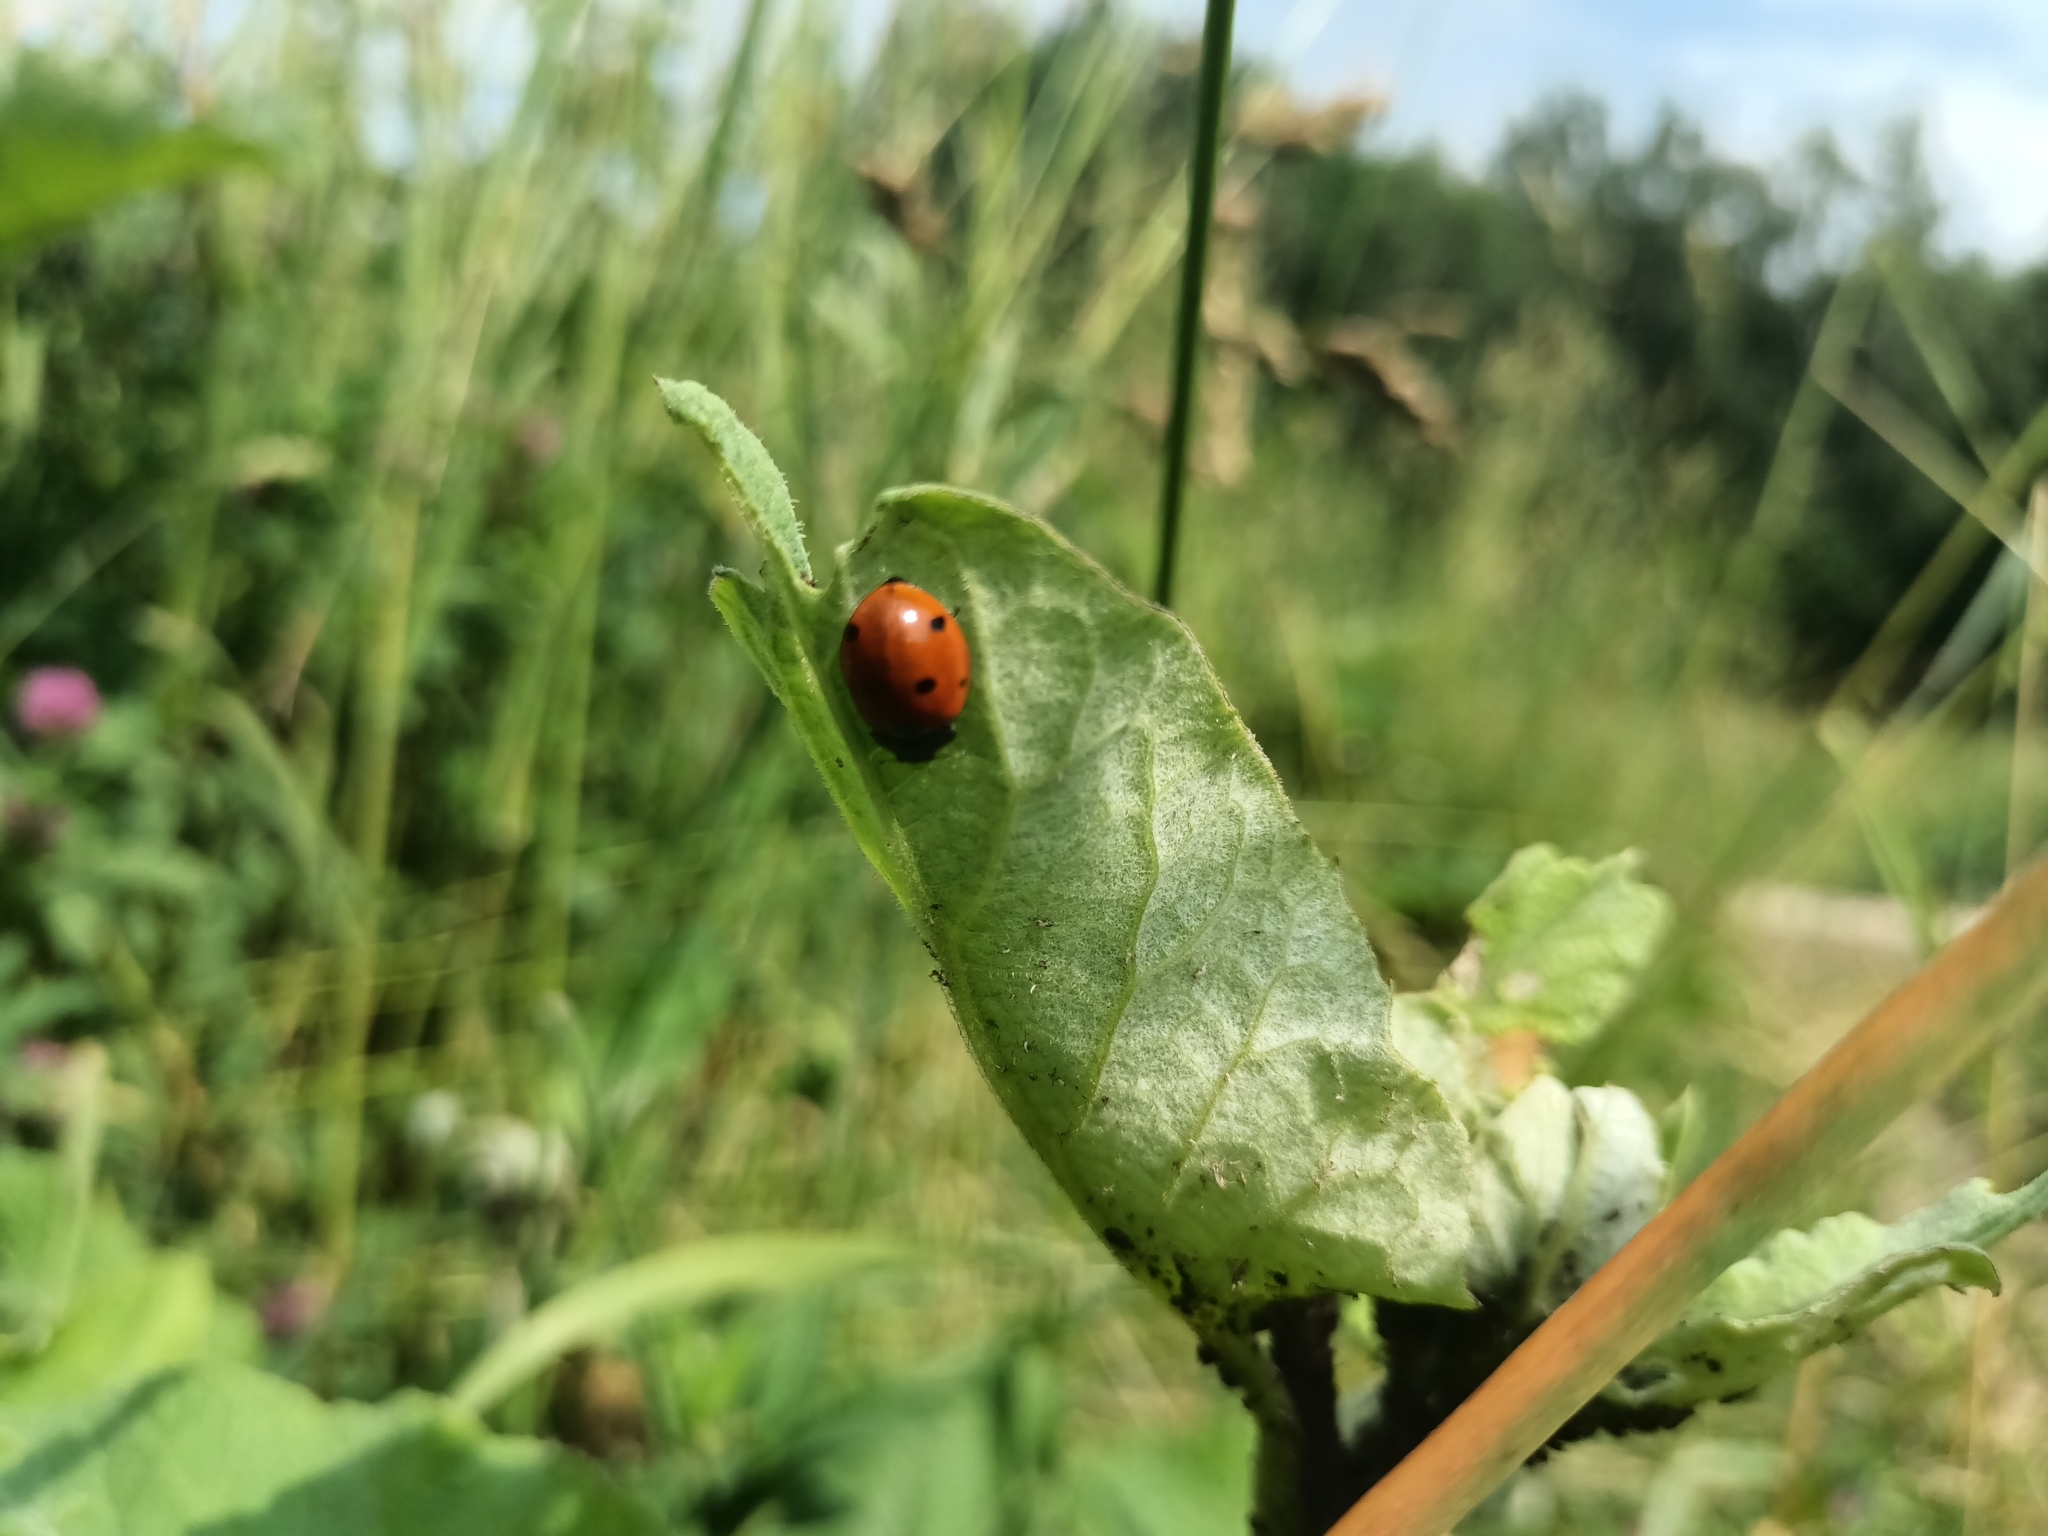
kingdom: Animalia
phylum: Arthropoda
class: Insecta
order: Coleoptera
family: Coccinellidae
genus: Coccinella
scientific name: Coccinella septempunctata
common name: Sevenspotted lady beetle
